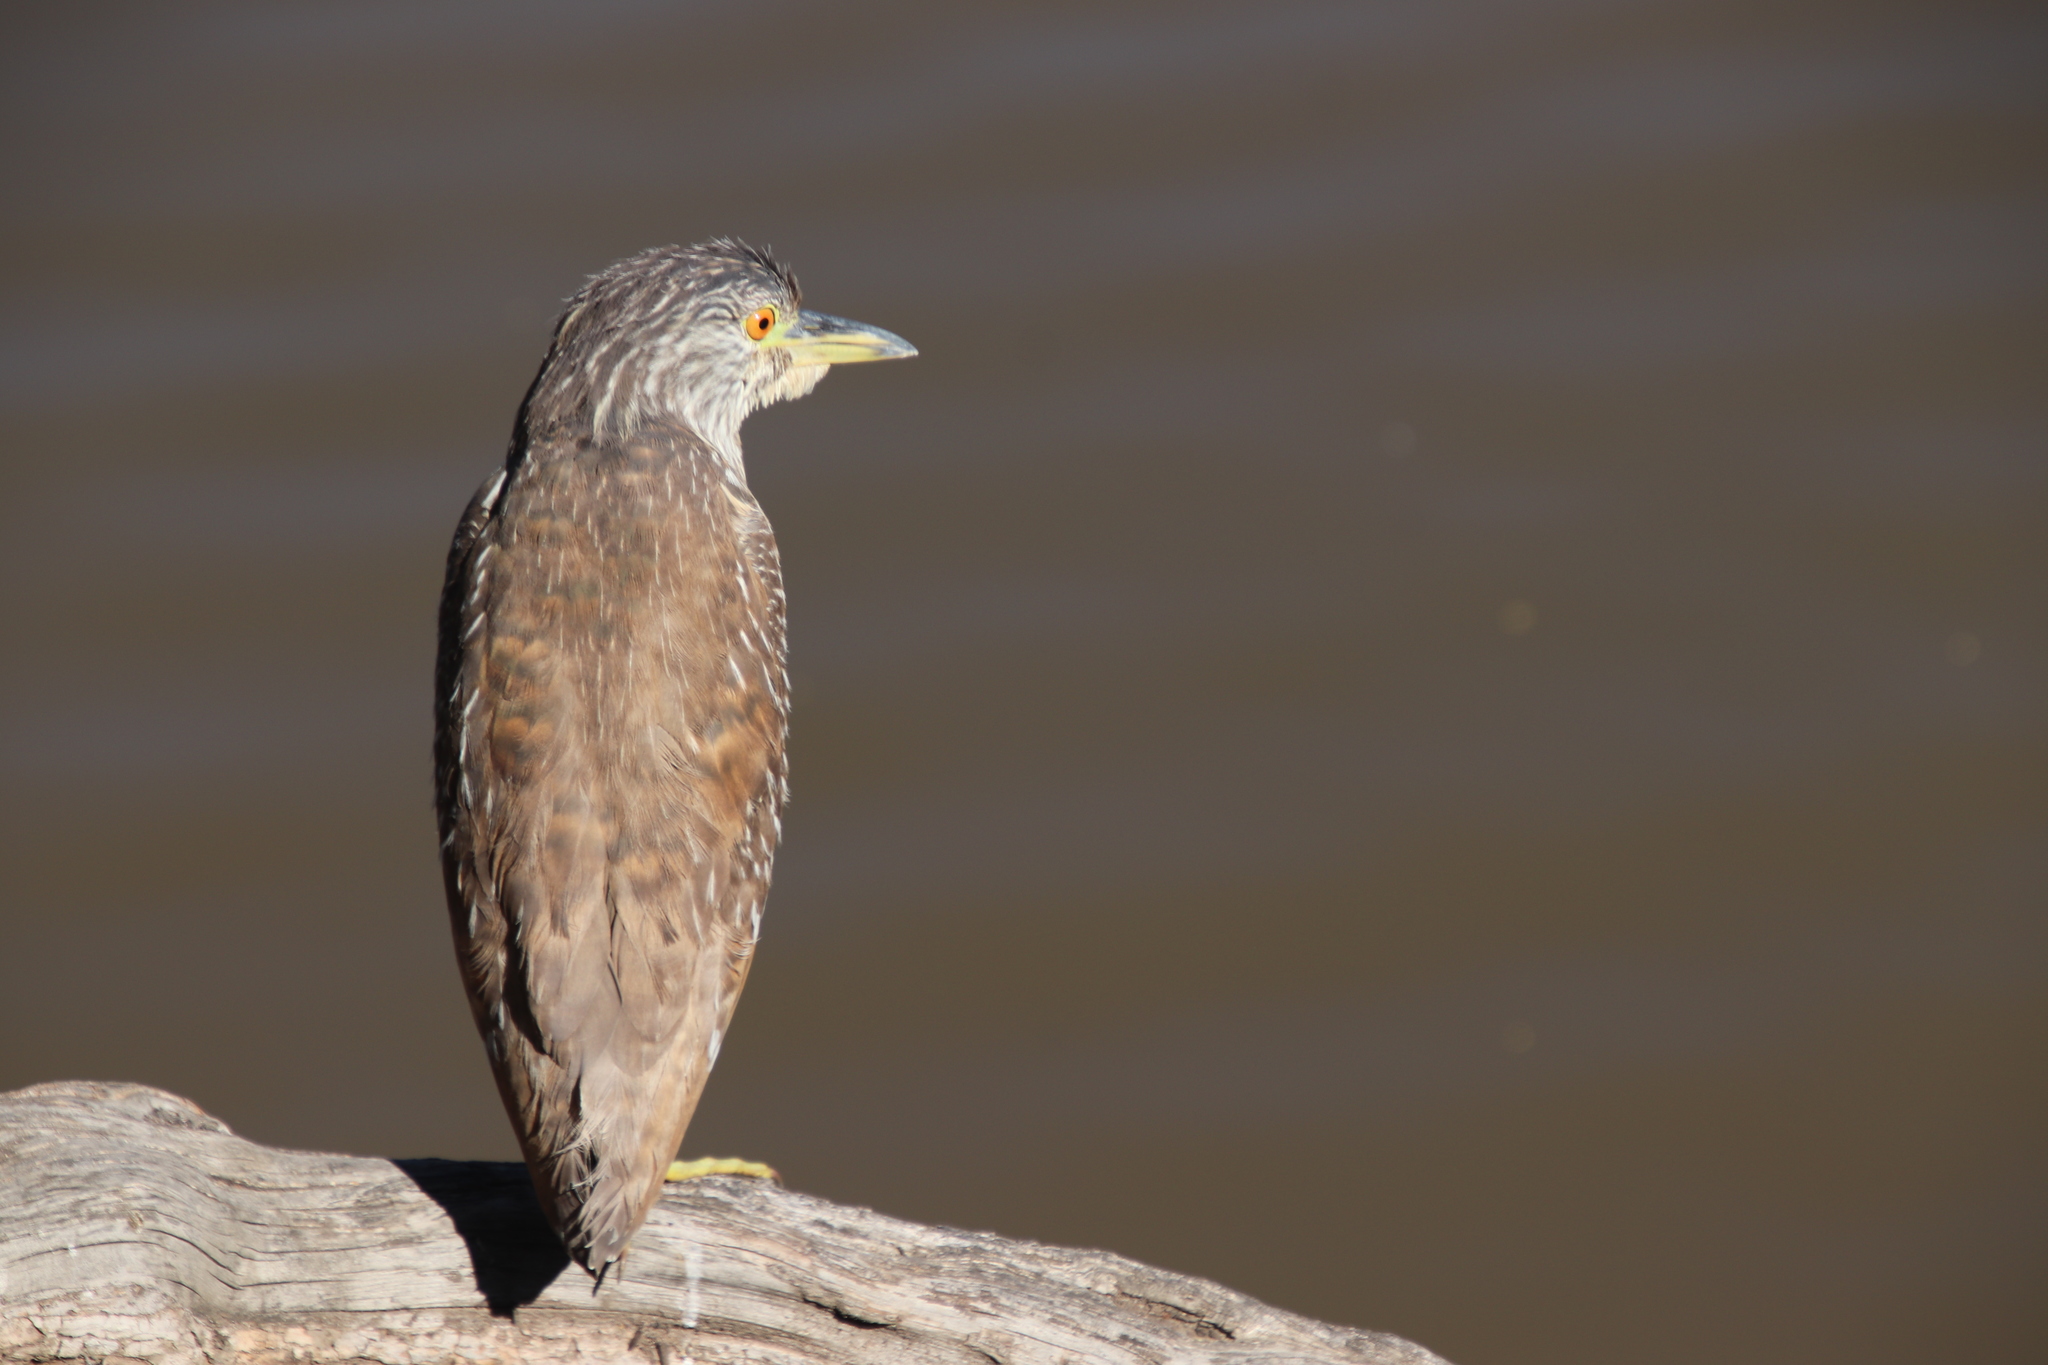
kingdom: Animalia
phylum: Chordata
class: Aves
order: Pelecaniformes
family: Ardeidae
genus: Nycticorax
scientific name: Nycticorax nycticorax
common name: Black-crowned night heron
